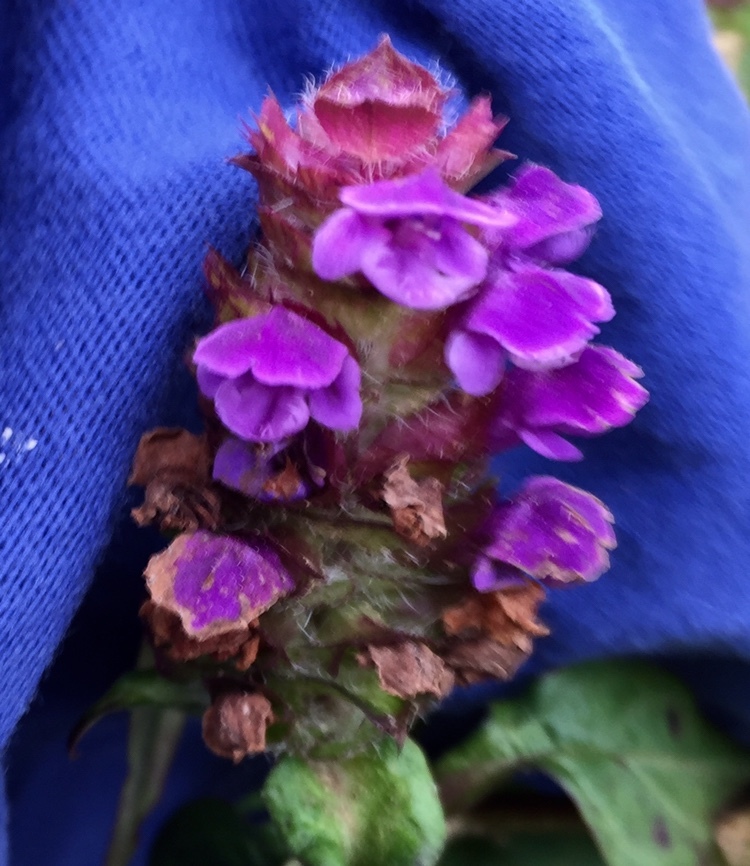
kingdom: Plantae
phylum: Tracheophyta
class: Magnoliopsida
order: Lamiales
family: Lamiaceae
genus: Prunella
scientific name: Prunella vulgaris
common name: Heal-all
